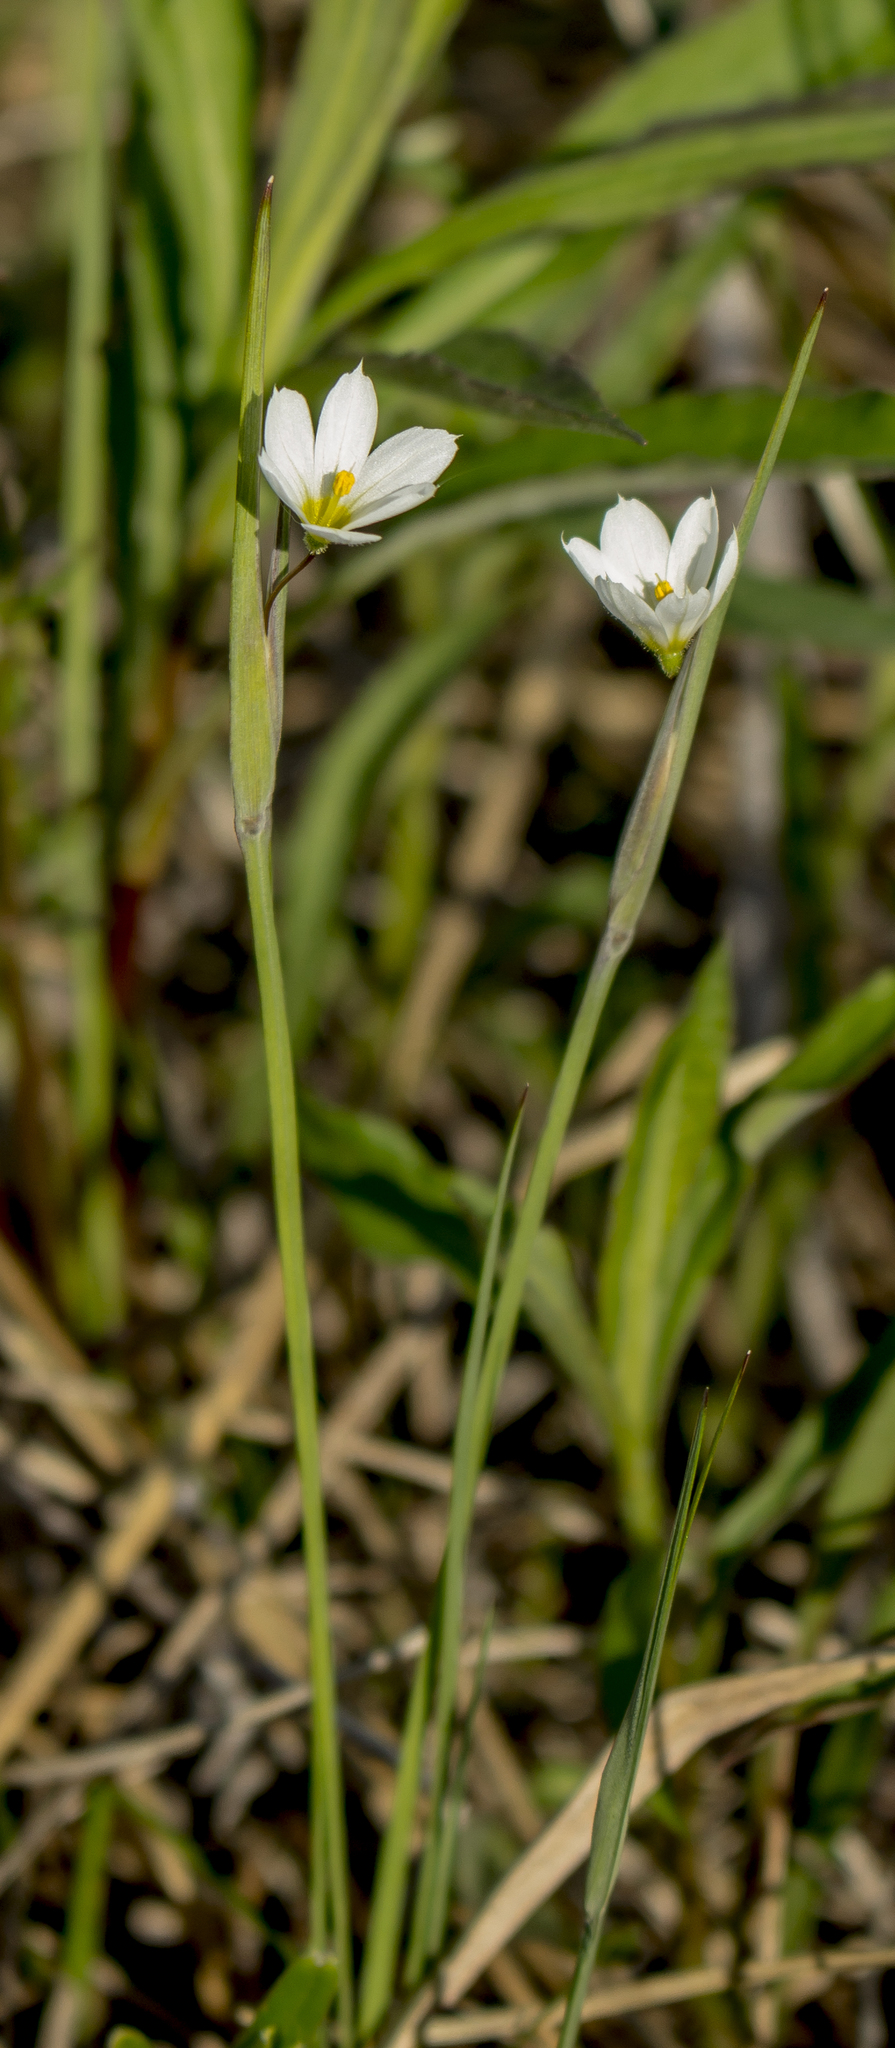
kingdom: Plantae
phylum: Tracheophyta
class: Liliopsida
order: Asparagales
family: Iridaceae
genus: Sisyrinchium
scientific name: Sisyrinchium campestre
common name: Prairie blue-eyed-grass
